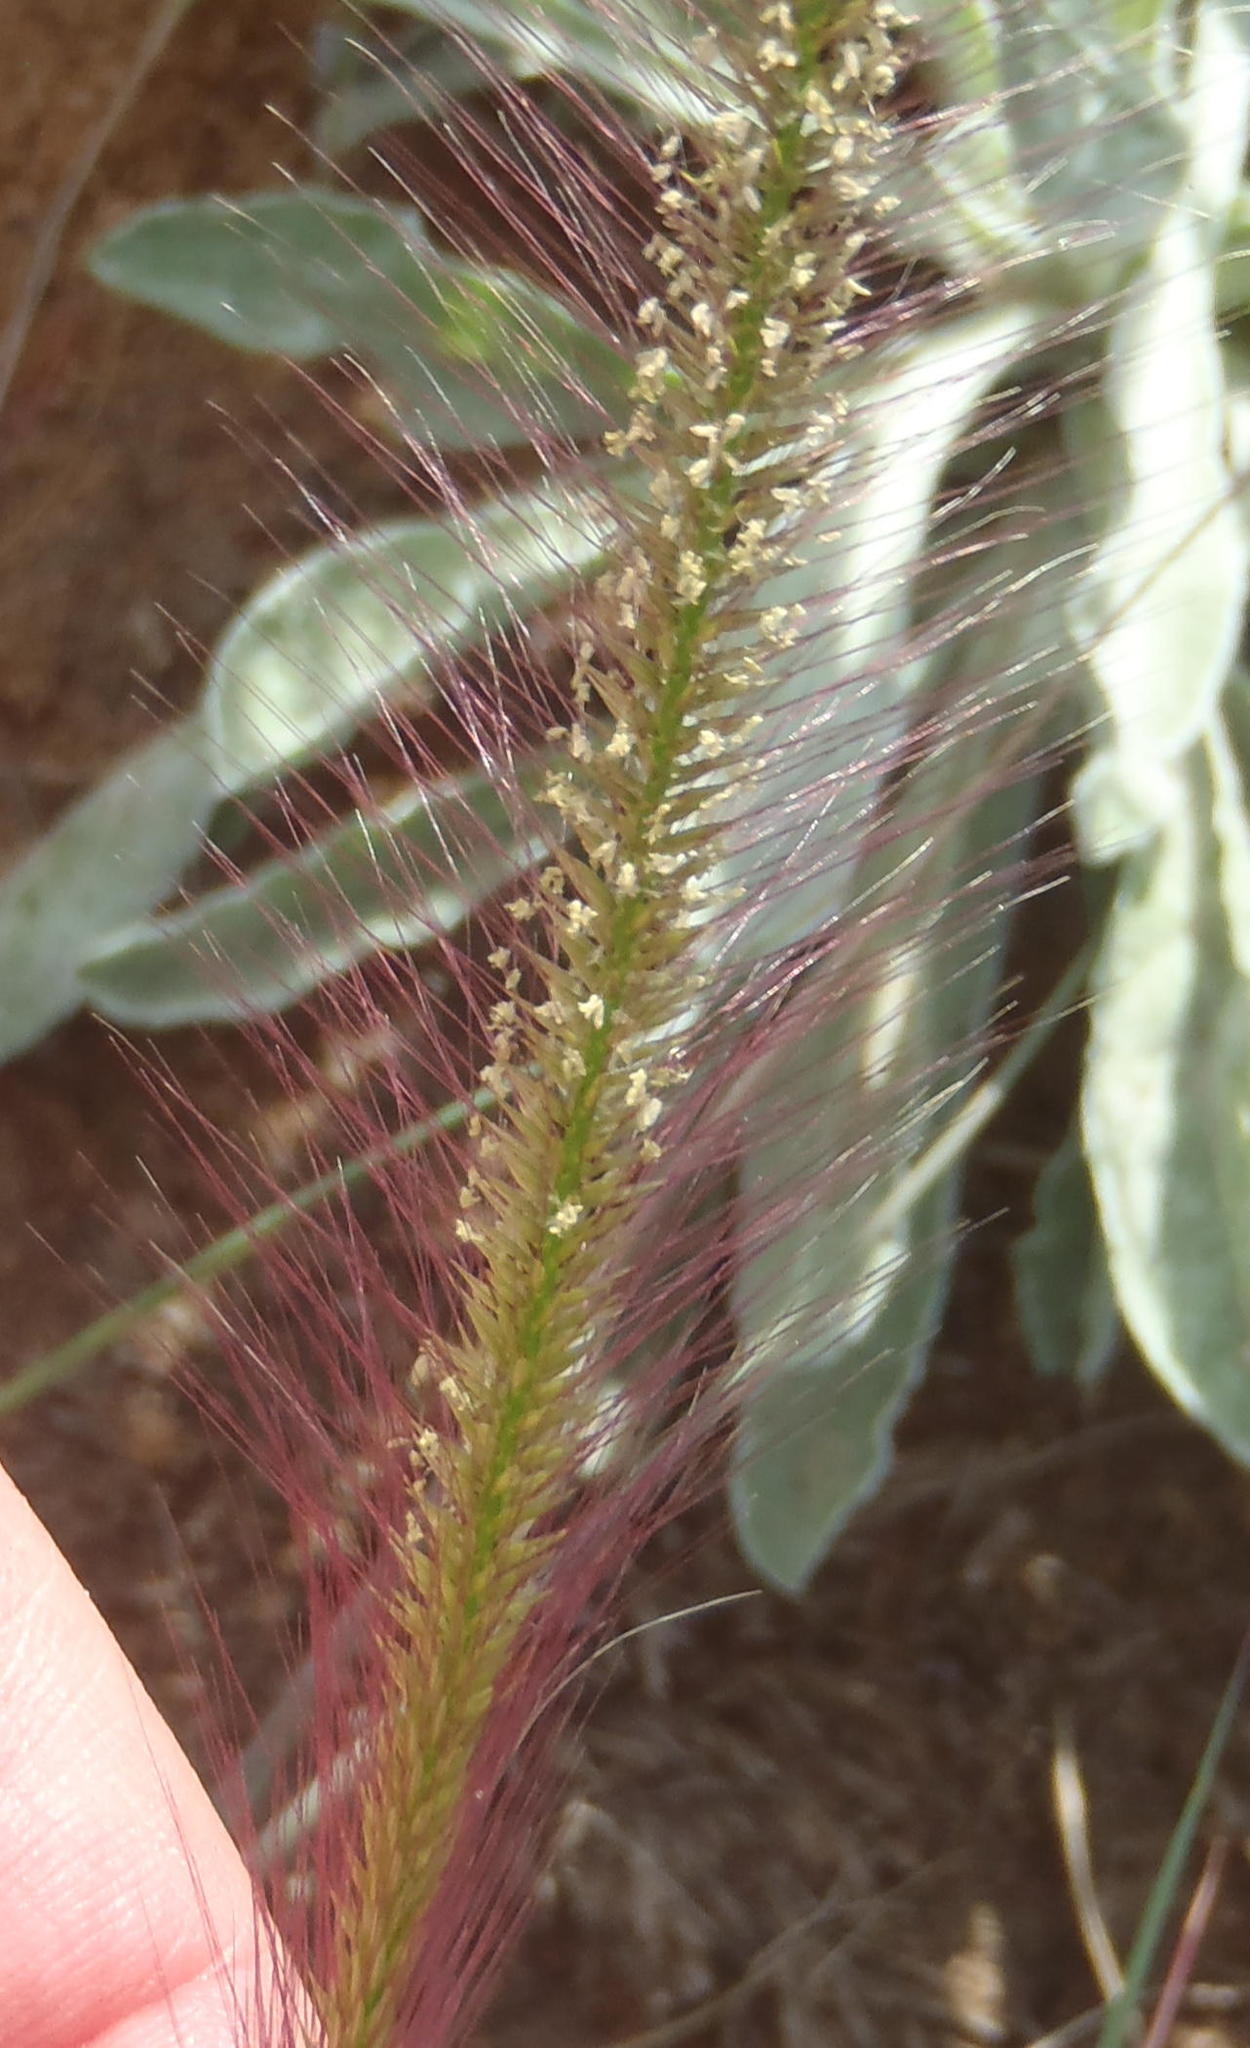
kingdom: Plantae
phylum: Tracheophyta
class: Liliopsida
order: Poales
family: Poaceae
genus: Perotis
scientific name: Perotis patens
